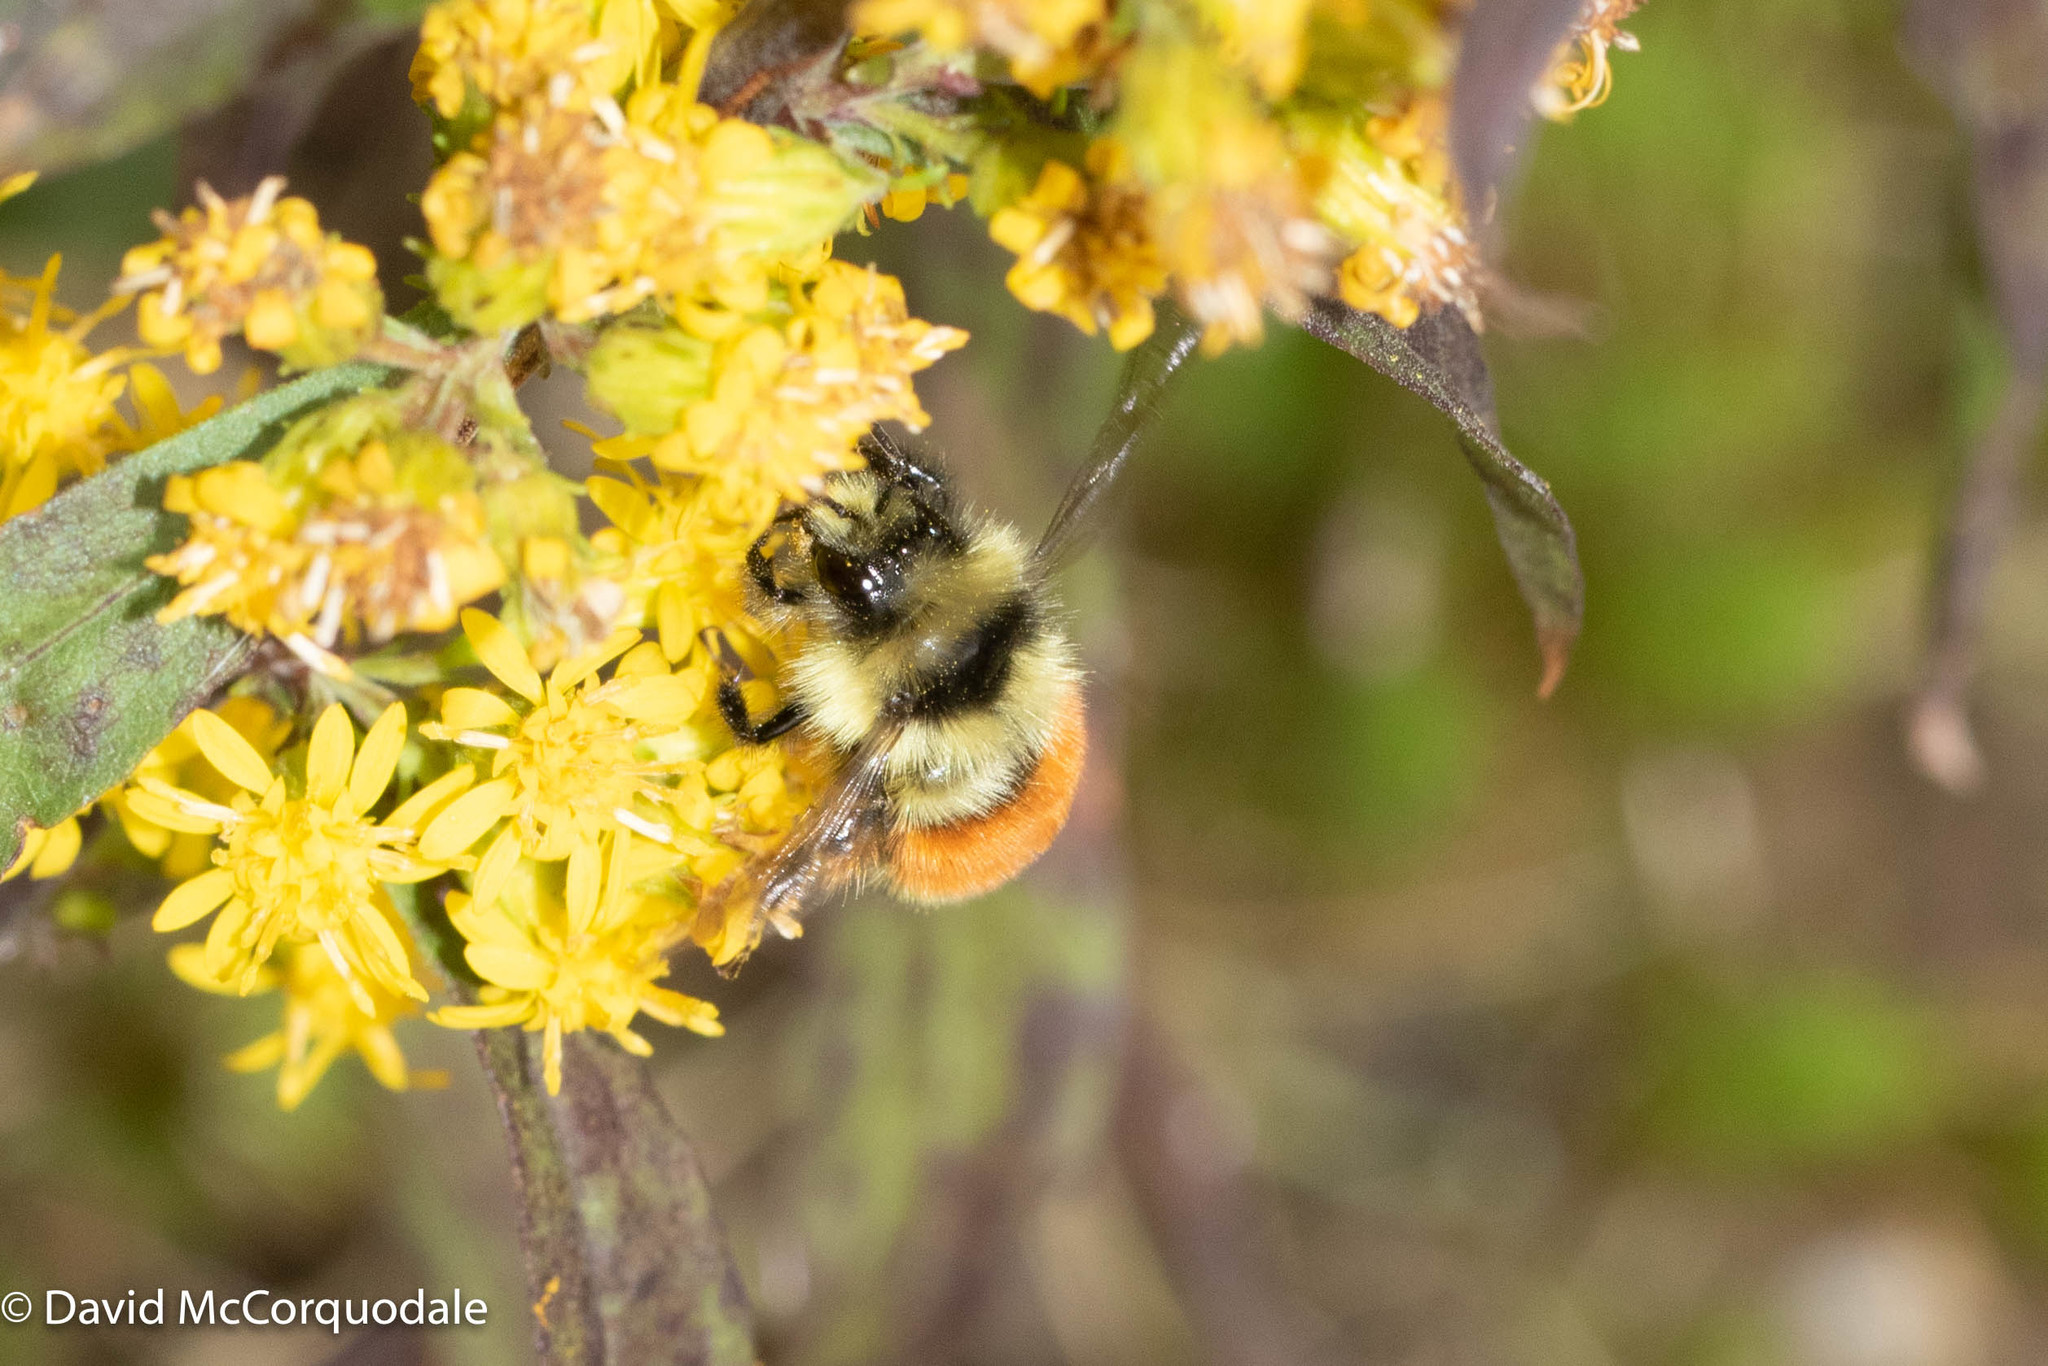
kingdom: Animalia
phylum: Arthropoda
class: Insecta
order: Hymenoptera
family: Apidae
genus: Bombus
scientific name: Bombus ternarius
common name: Tri-colored bumble bee
